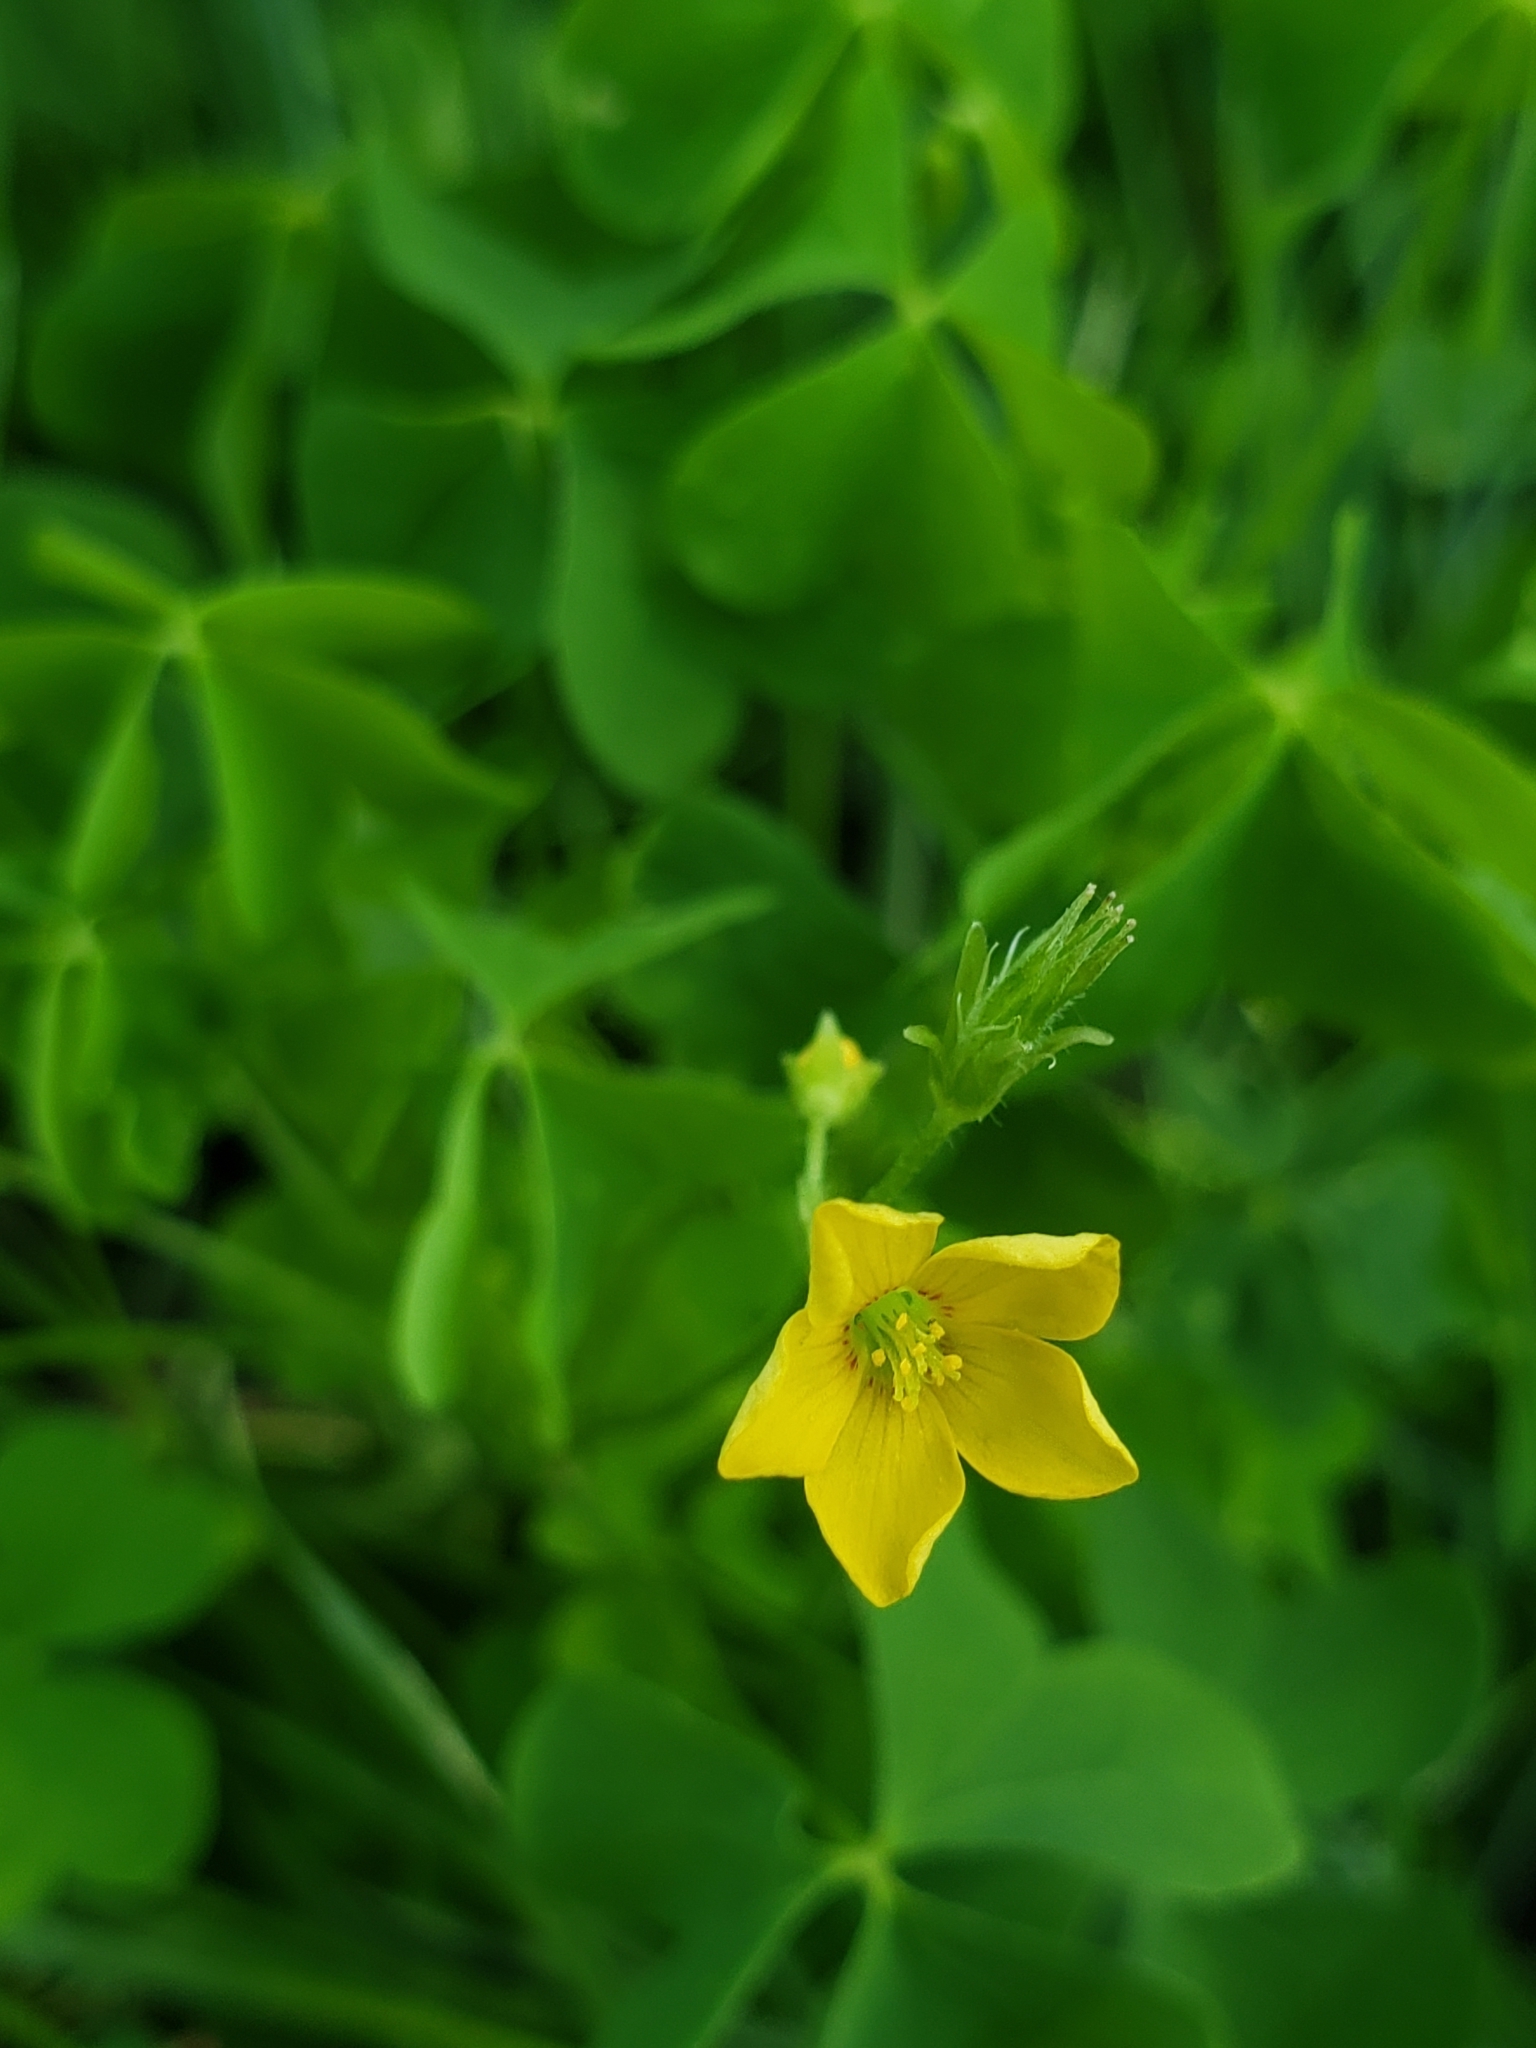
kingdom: Plantae
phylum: Tracheophyta
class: Magnoliopsida
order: Oxalidales
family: Oxalidaceae
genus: Oxalis
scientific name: Oxalis stricta
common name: Upright yellow-sorrel
